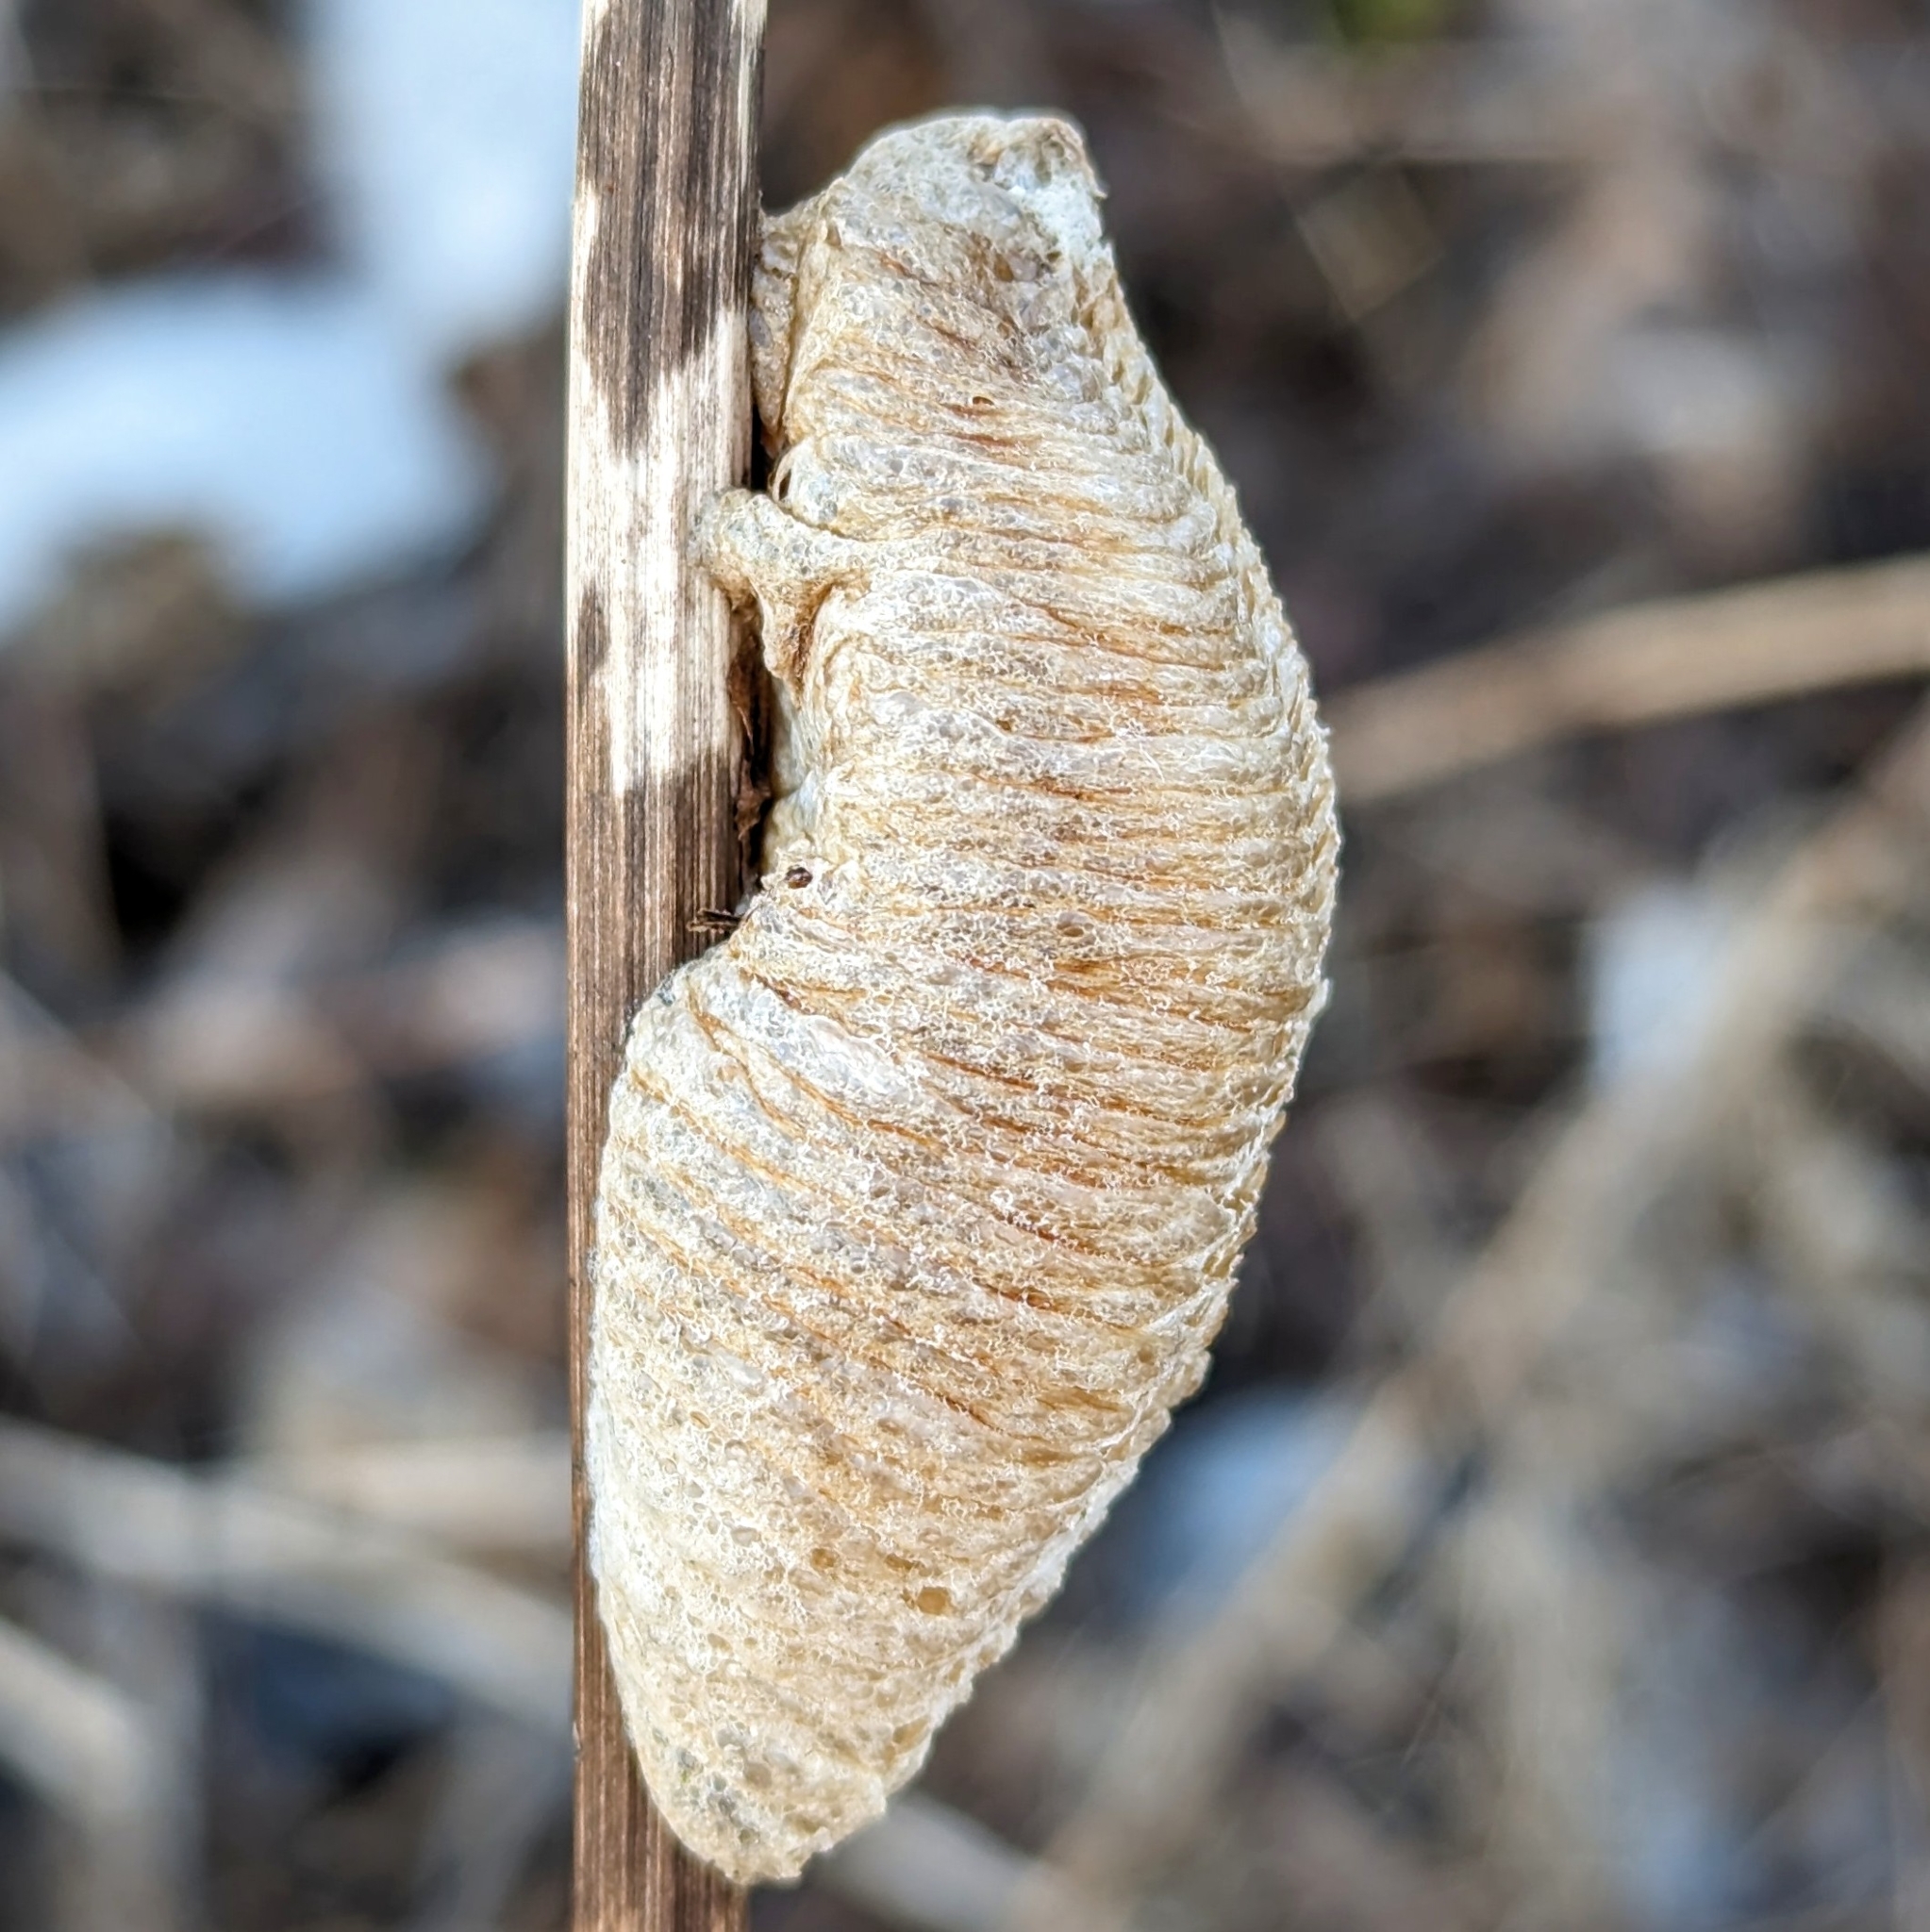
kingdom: Animalia
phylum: Arthropoda
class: Insecta
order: Mantodea
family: Mantidae
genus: Mantis
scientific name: Mantis religiosa
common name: Praying mantis
